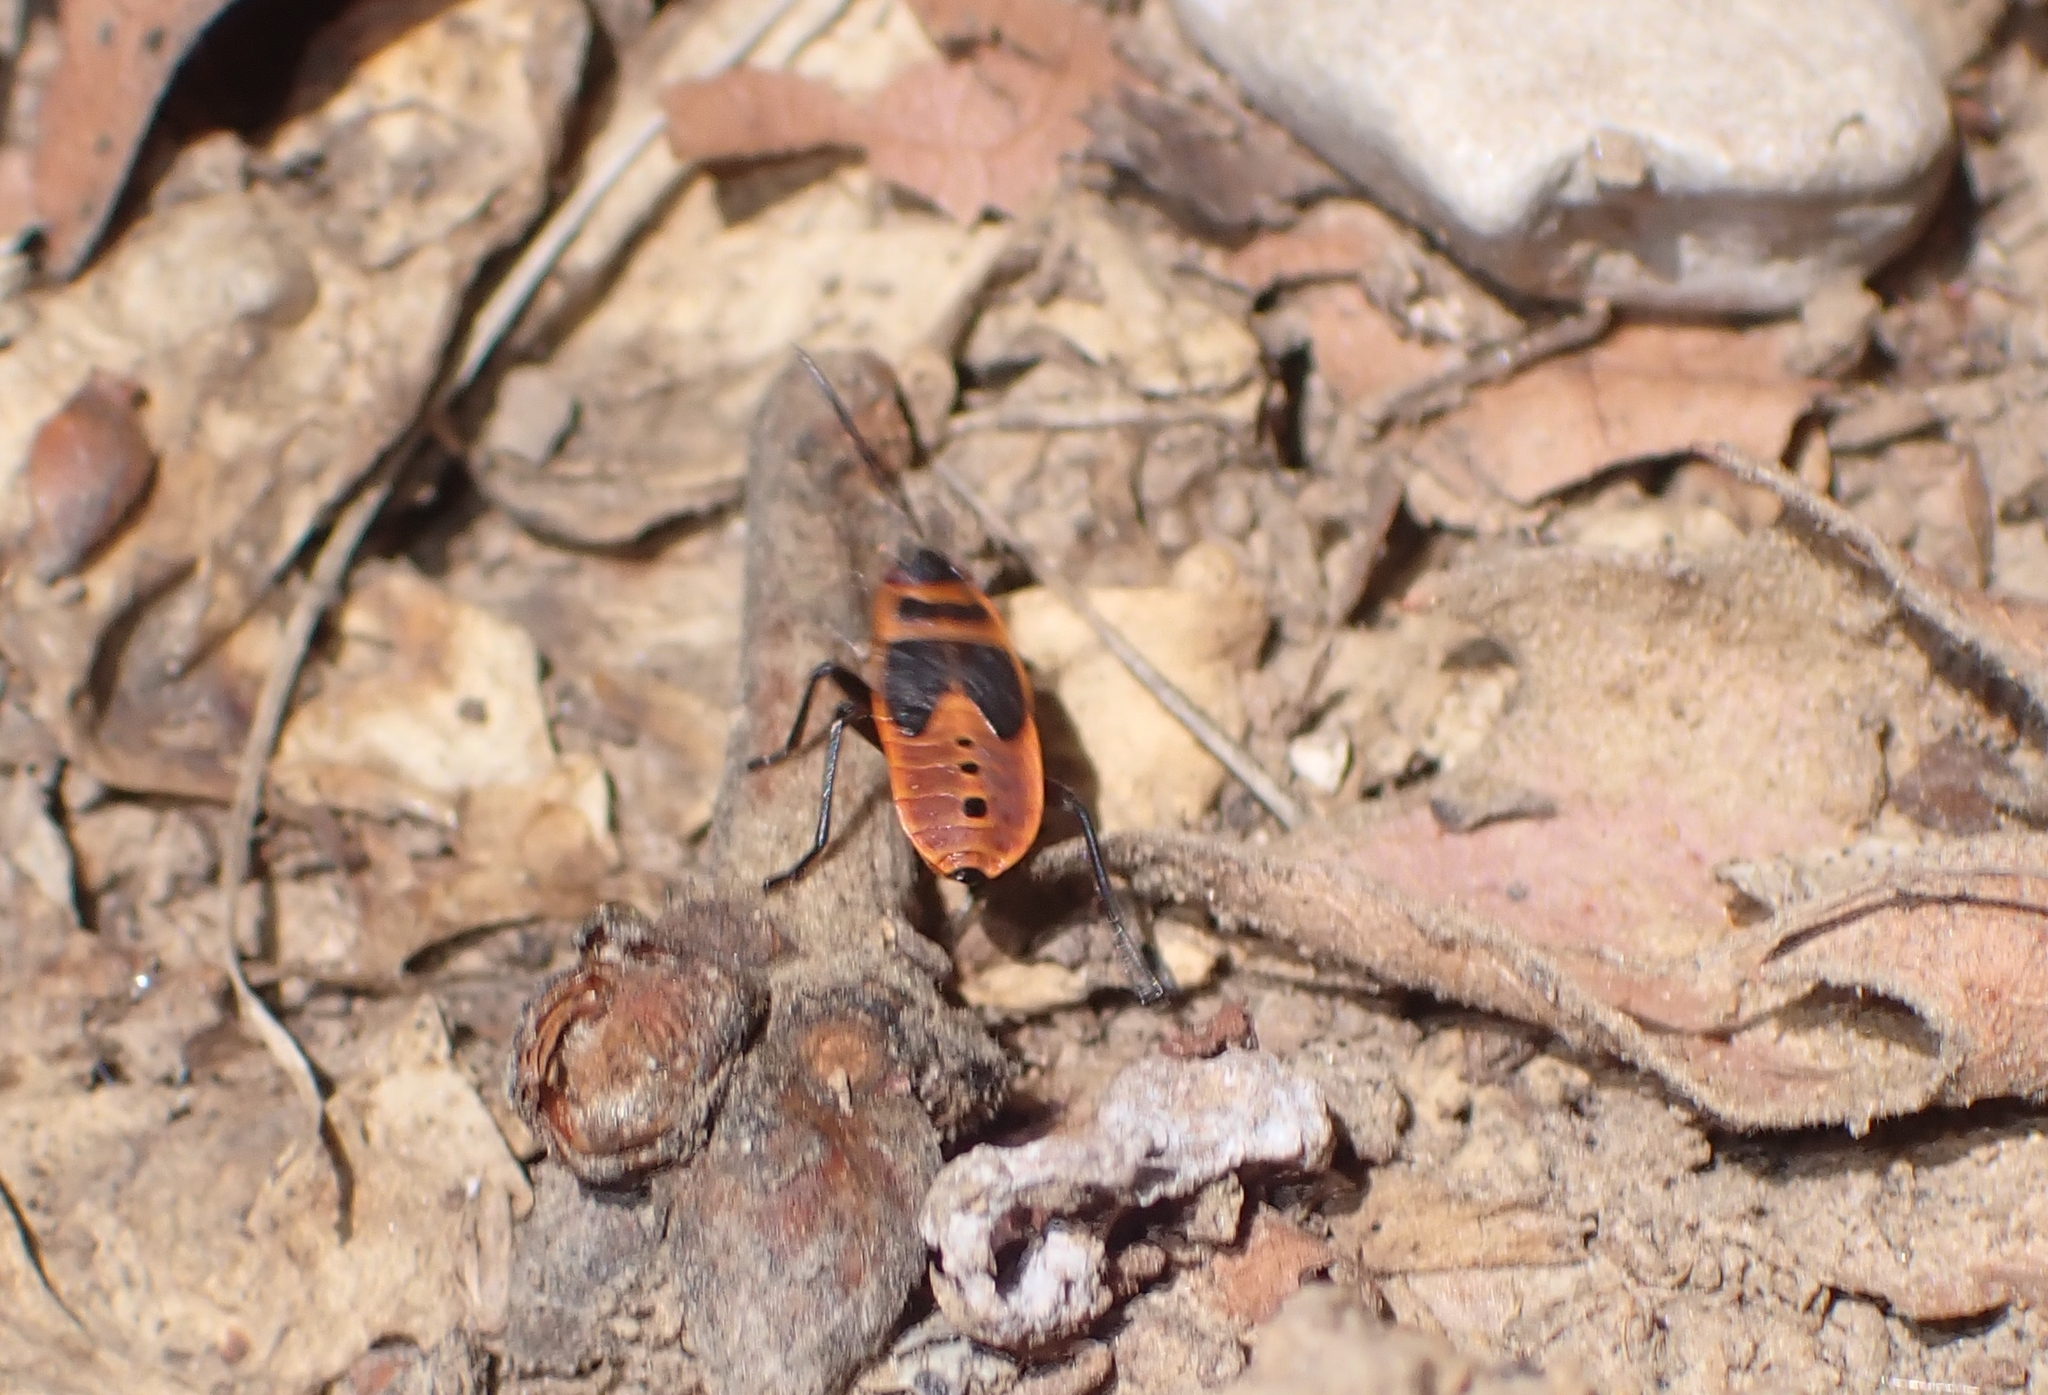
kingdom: Animalia
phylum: Arthropoda
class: Insecta
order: Hemiptera
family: Pyrrhocoridae
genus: Pyrrhocoris
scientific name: Pyrrhocoris apterus
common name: Firebug
